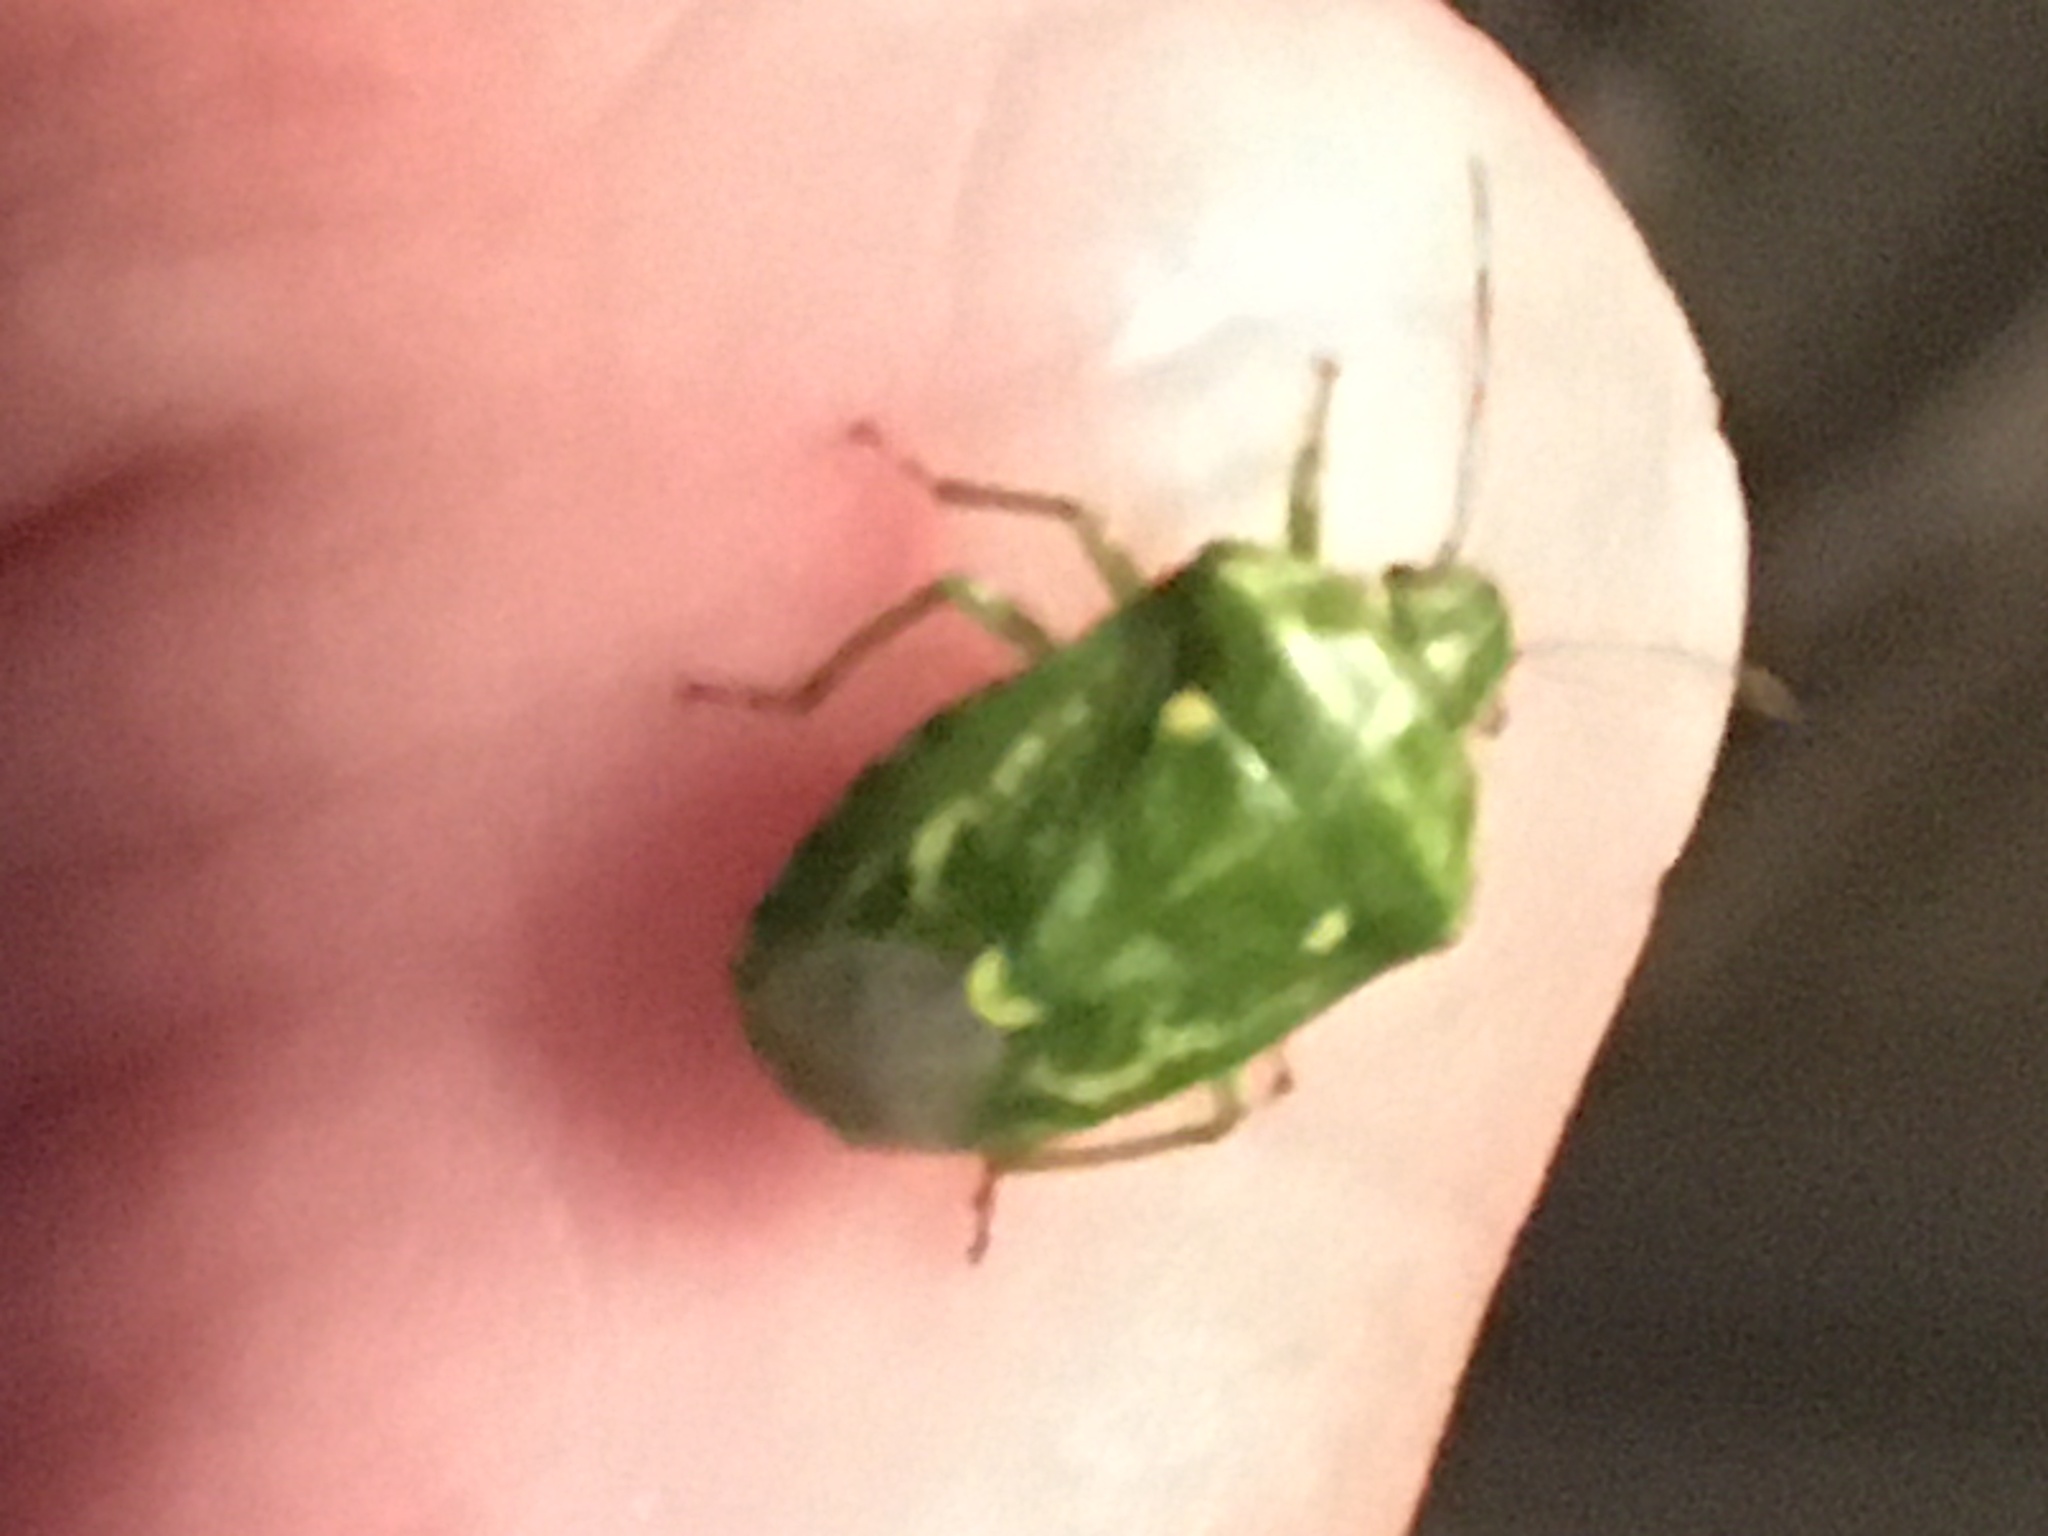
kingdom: Animalia
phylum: Arthropoda
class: Insecta
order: Hemiptera
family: Pentatomidae
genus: Banasa
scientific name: Banasa euchlora
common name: Cedar berry bug
